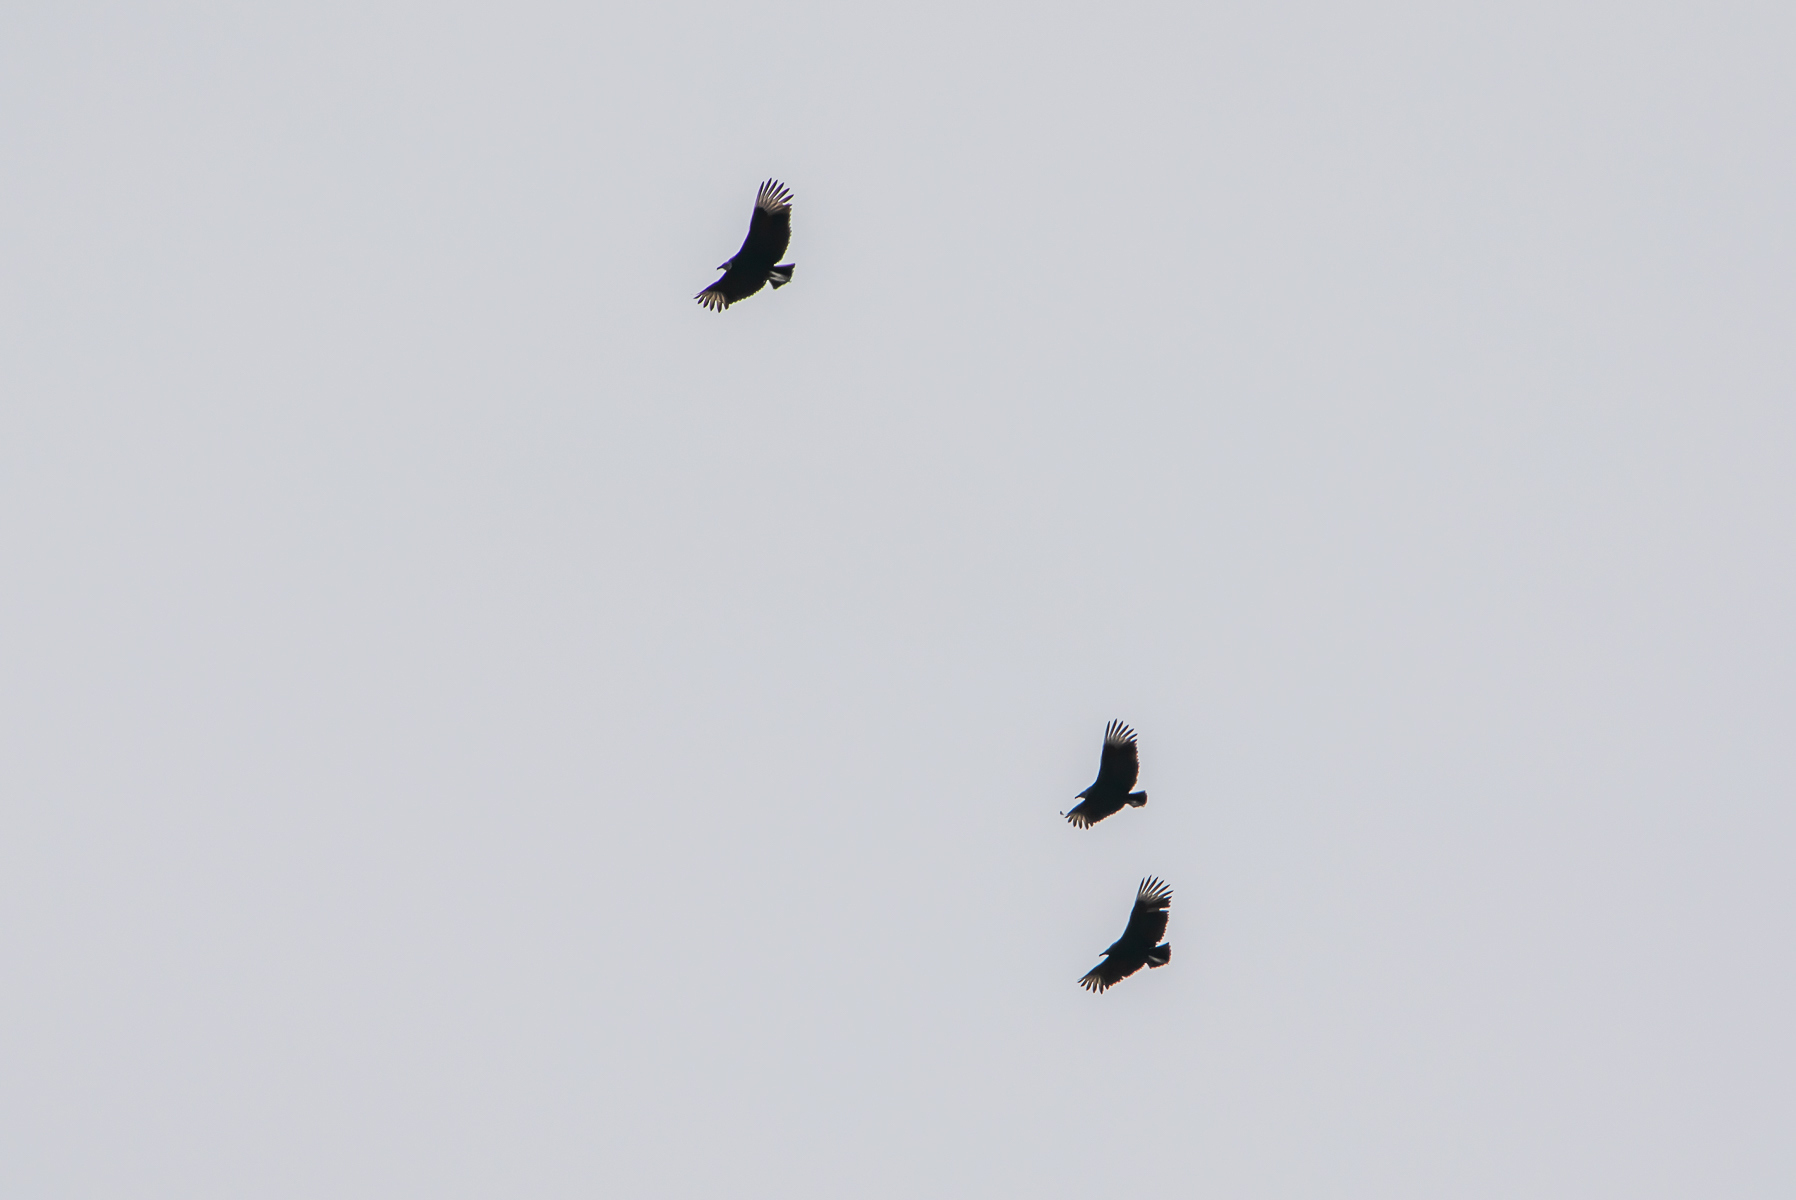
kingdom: Animalia
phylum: Chordata
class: Aves
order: Accipitriformes
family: Cathartidae
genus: Coragyps
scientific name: Coragyps atratus
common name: Black vulture
